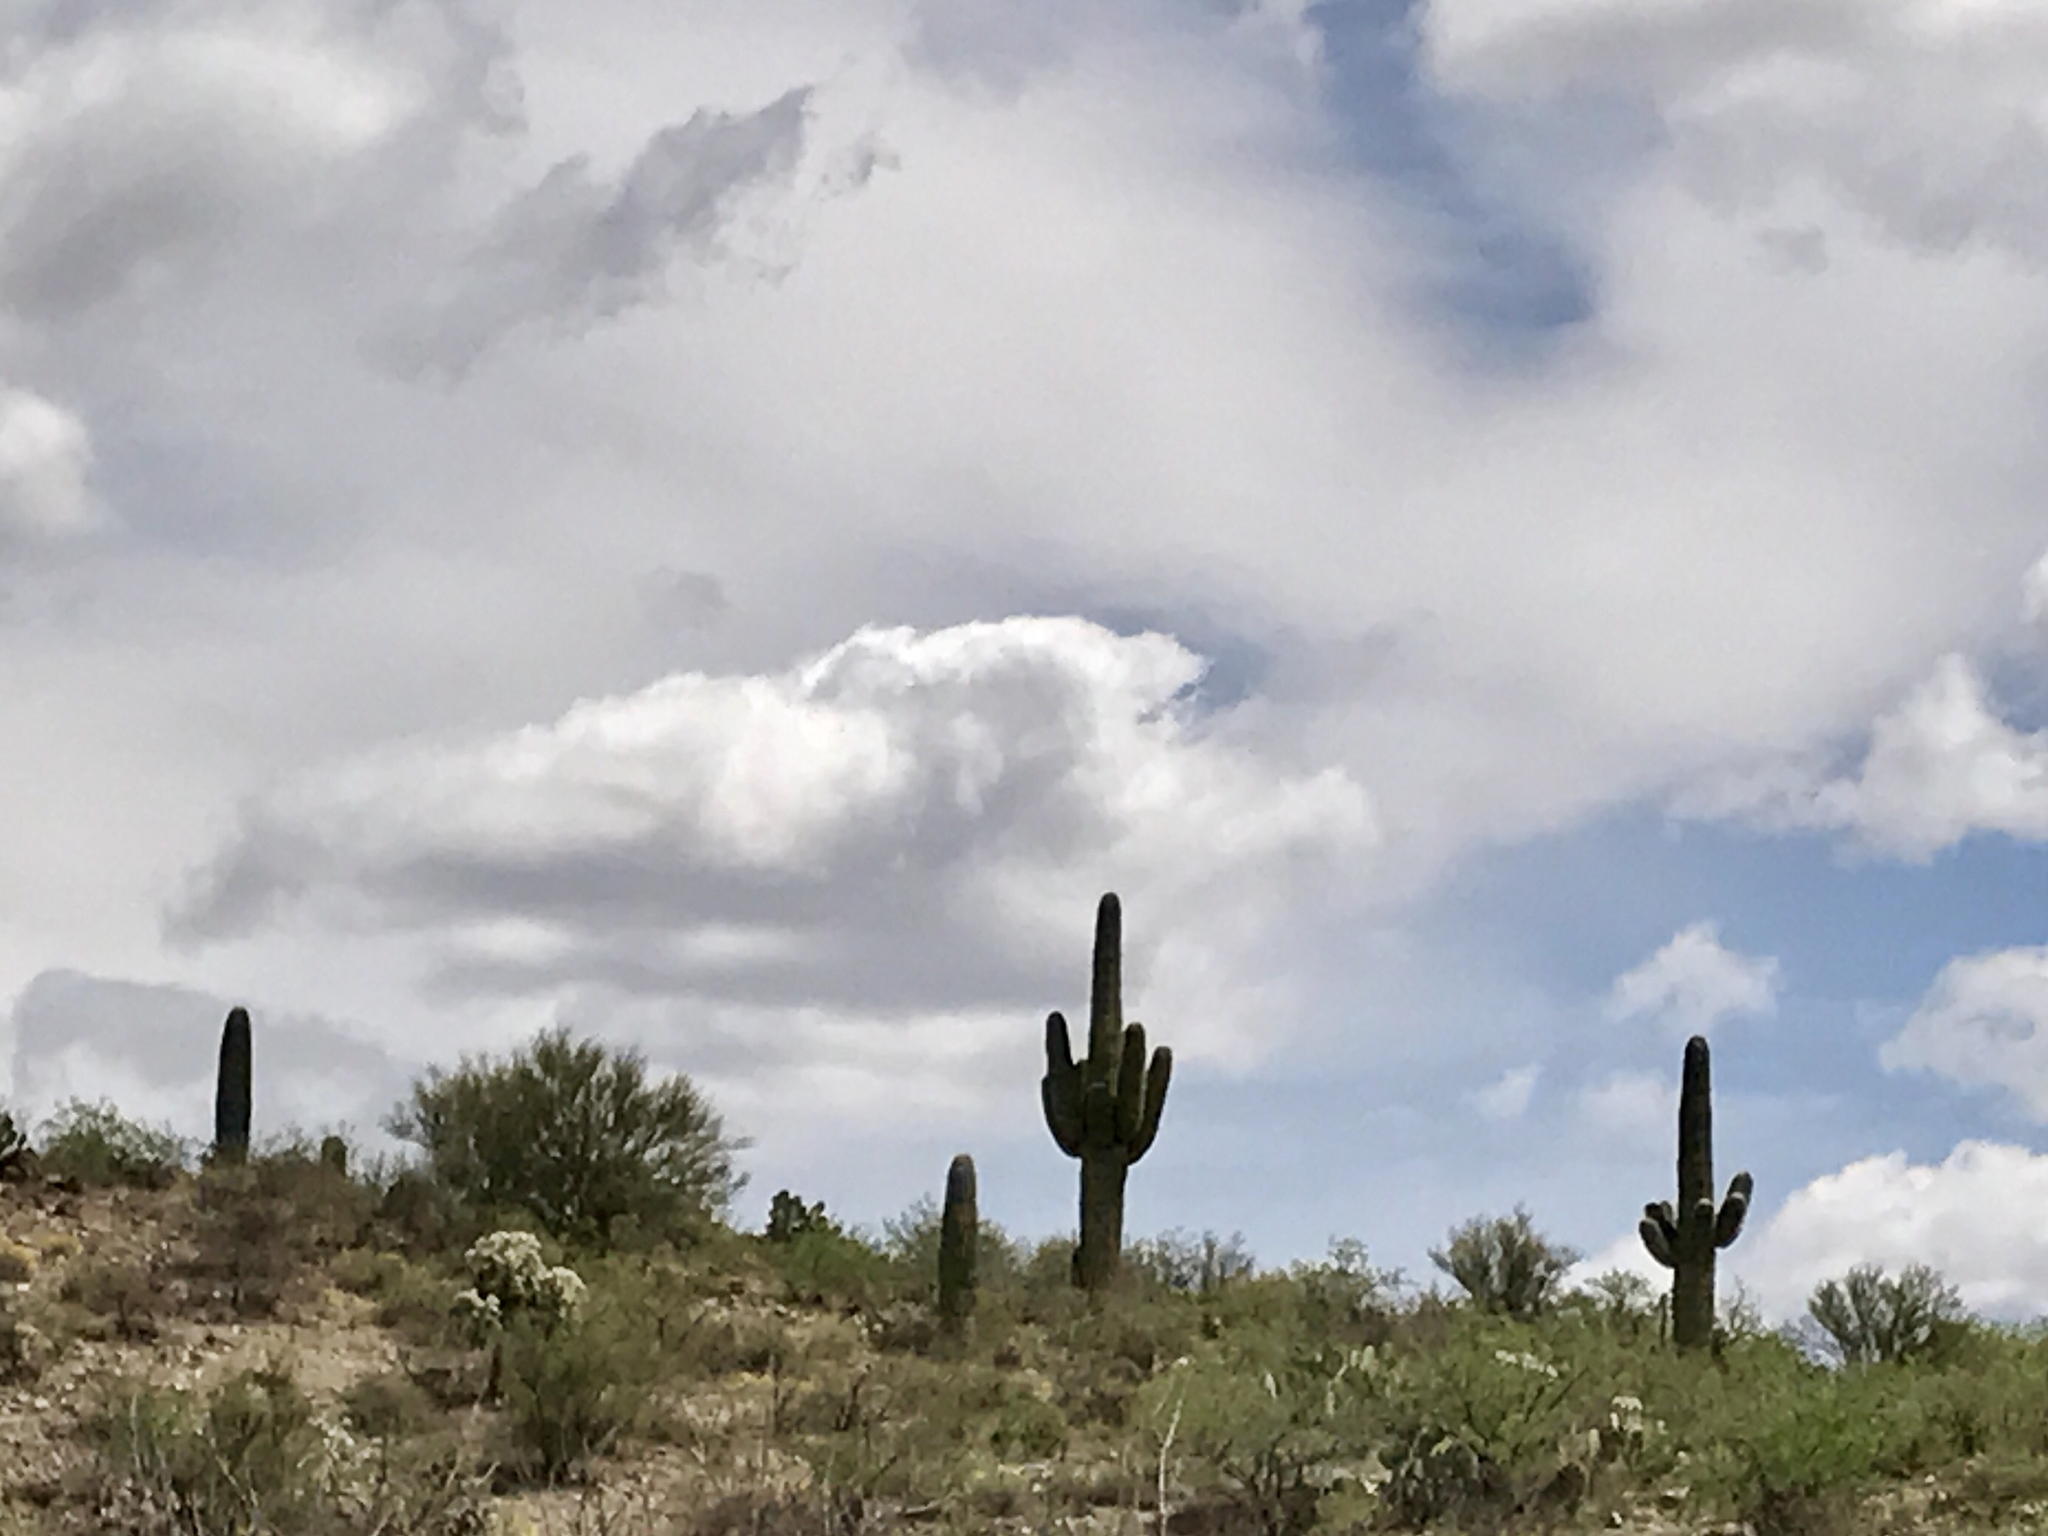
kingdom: Plantae
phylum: Tracheophyta
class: Magnoliopsida
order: Caryophyllales
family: Cactaceae
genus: Carnegiea
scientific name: Carnegiea gigantea
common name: Saguaro
